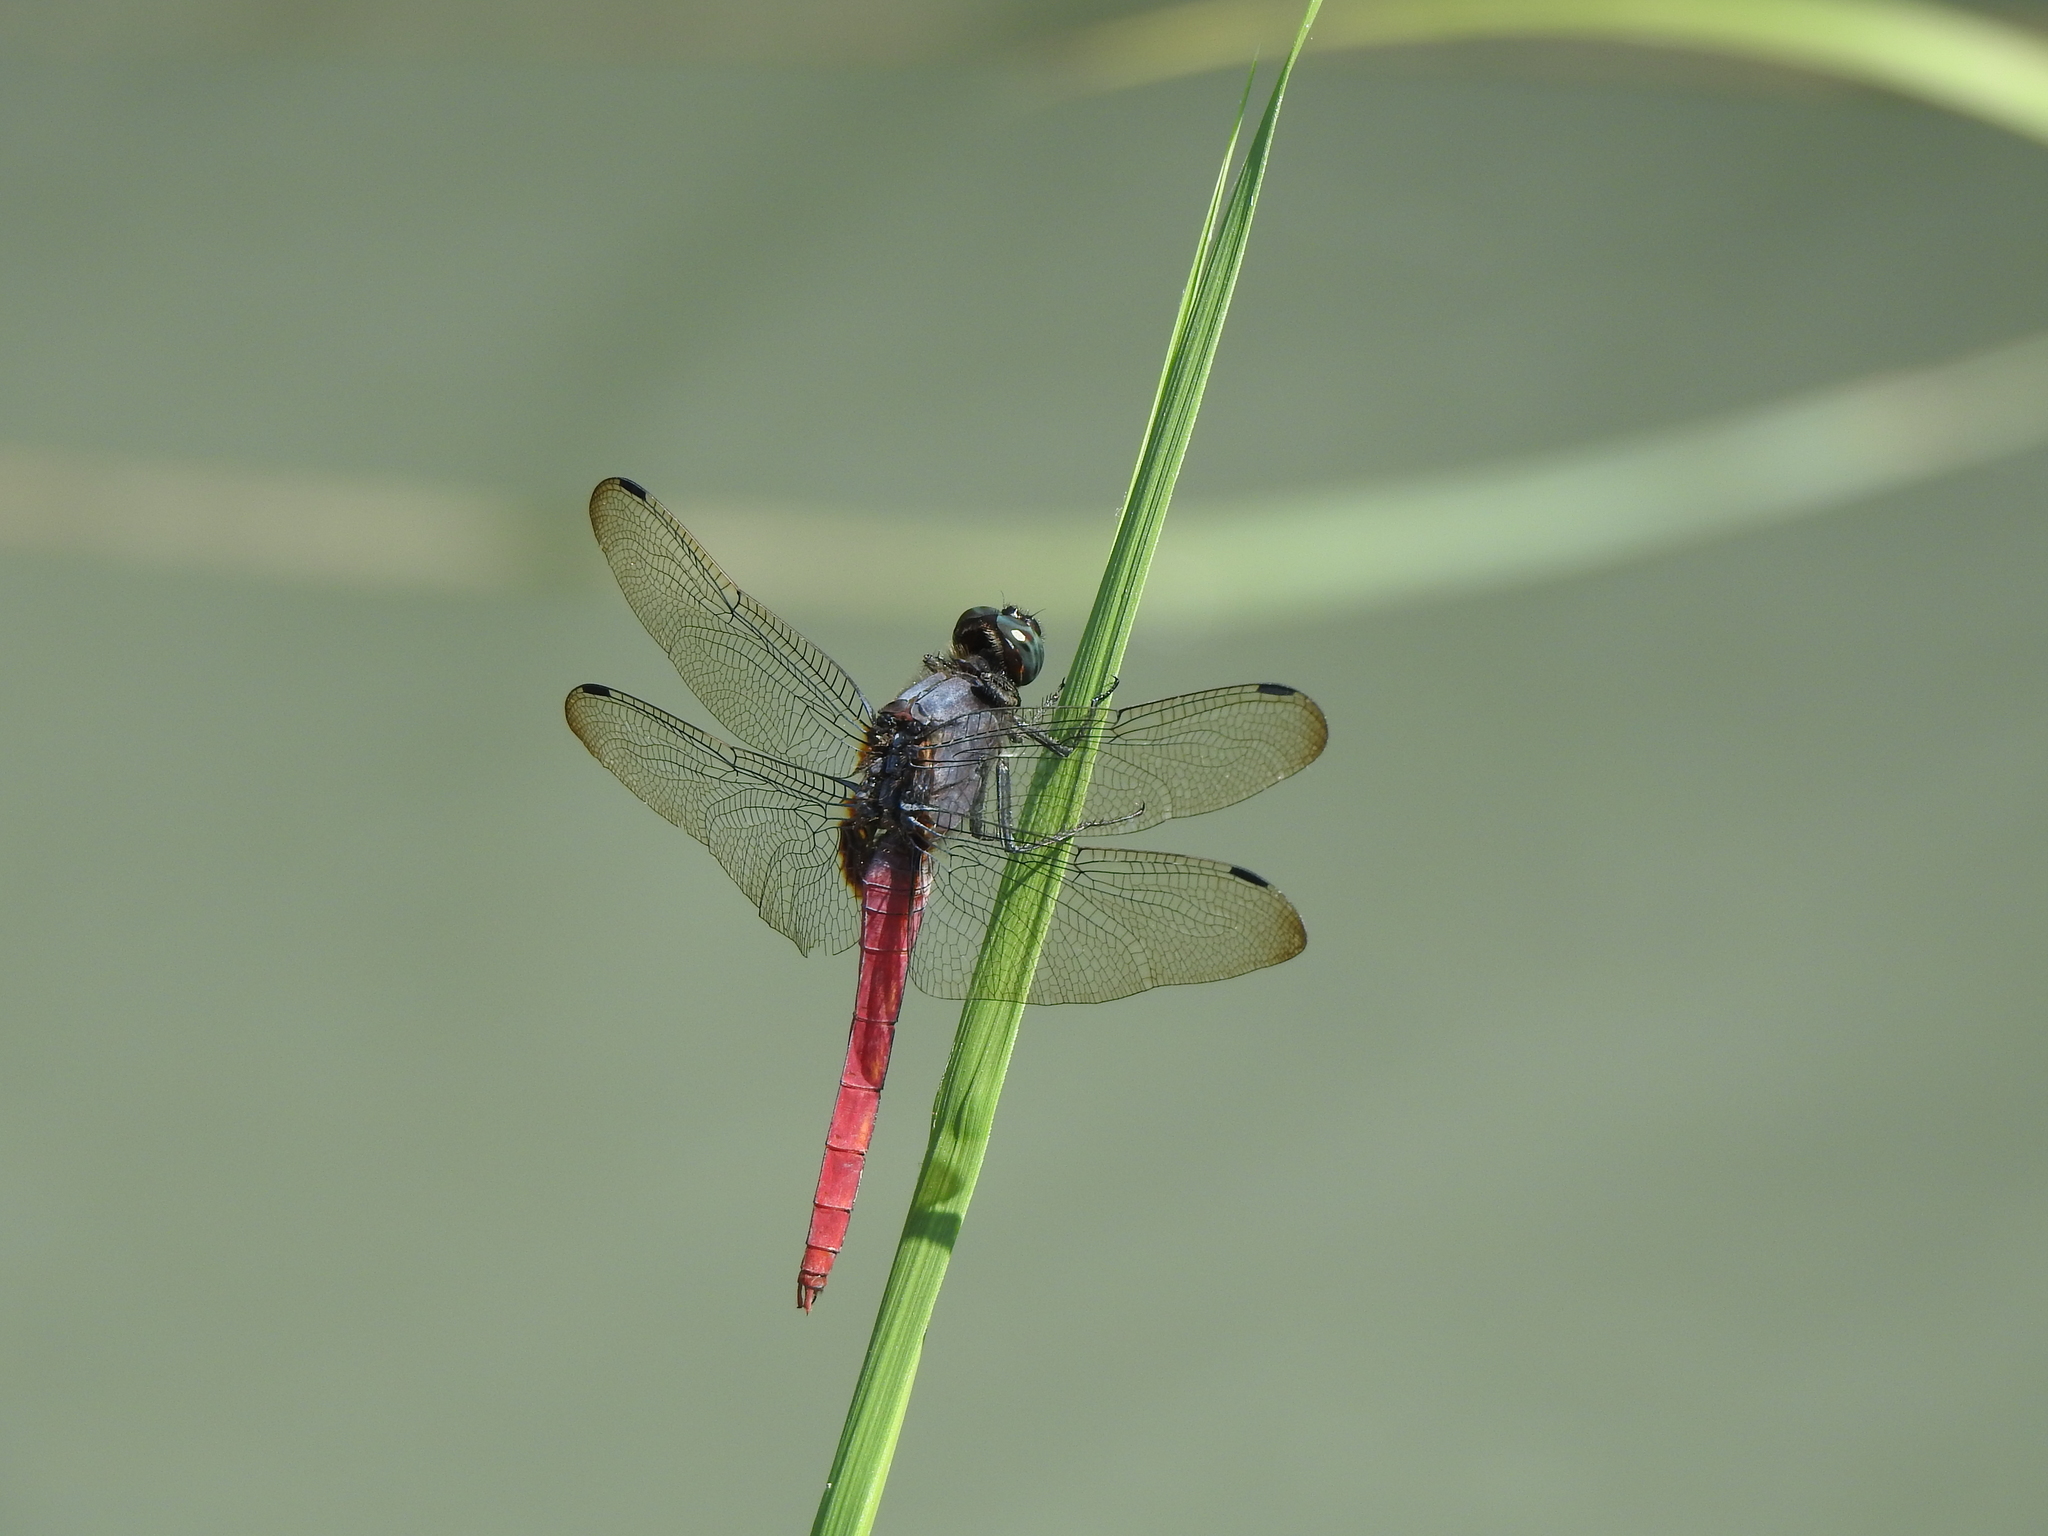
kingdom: Animalia
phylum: Arthropoda
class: Insecta
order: Odonata
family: Libellulidae
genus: Orthetrum
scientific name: Orthetrum pruinosum
